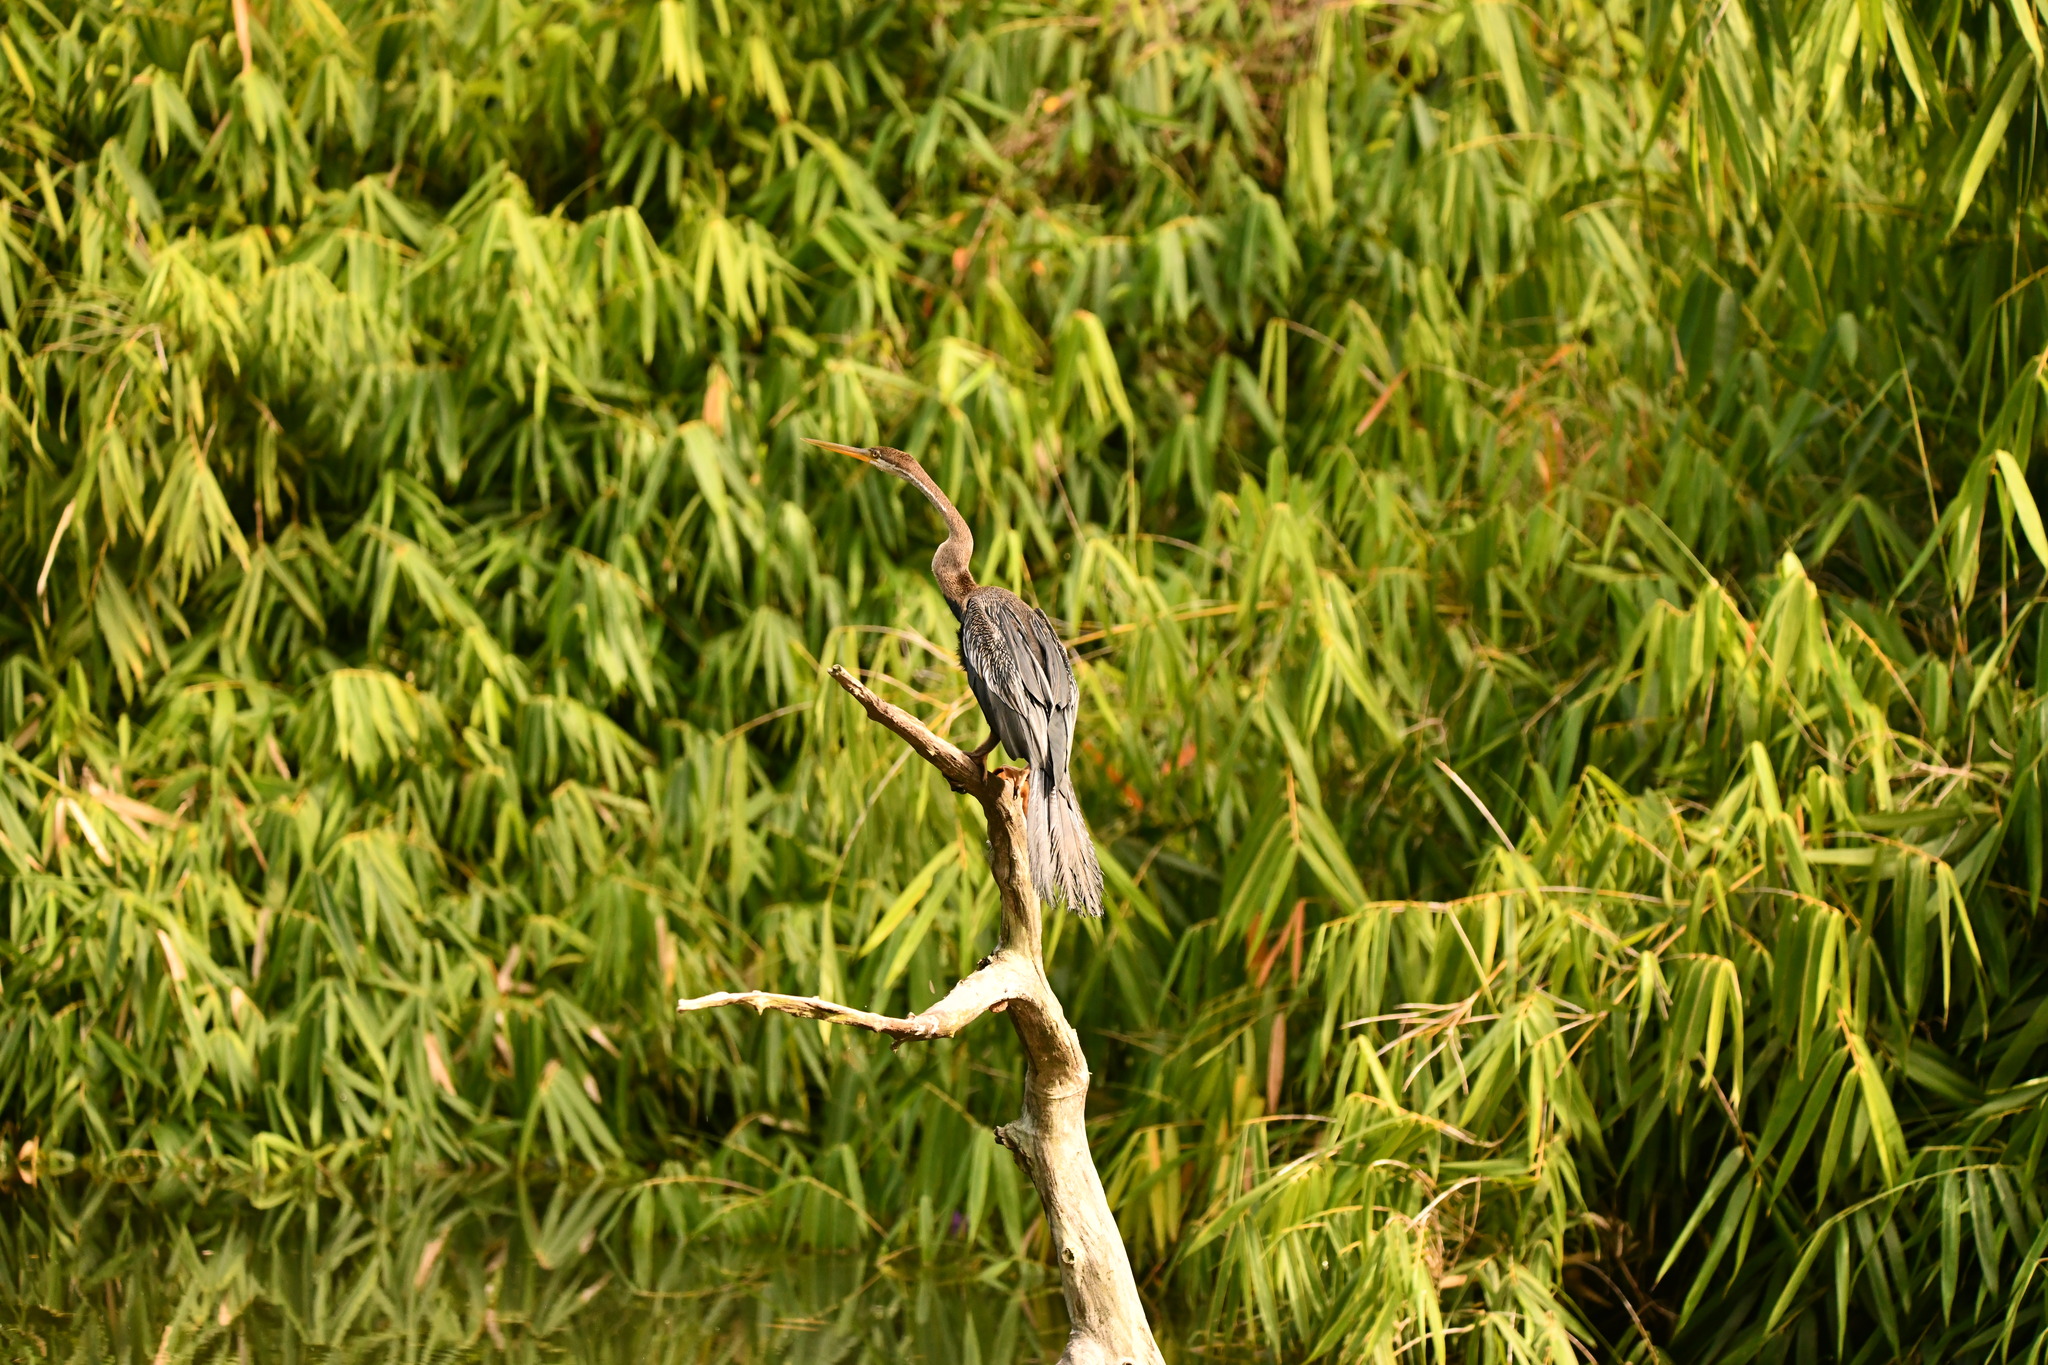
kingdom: Animalia
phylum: Chordata
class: Aves
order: Suliformes
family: Anhingidae
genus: Anhinga
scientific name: Anhinga melanogaster
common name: Oriental darter
